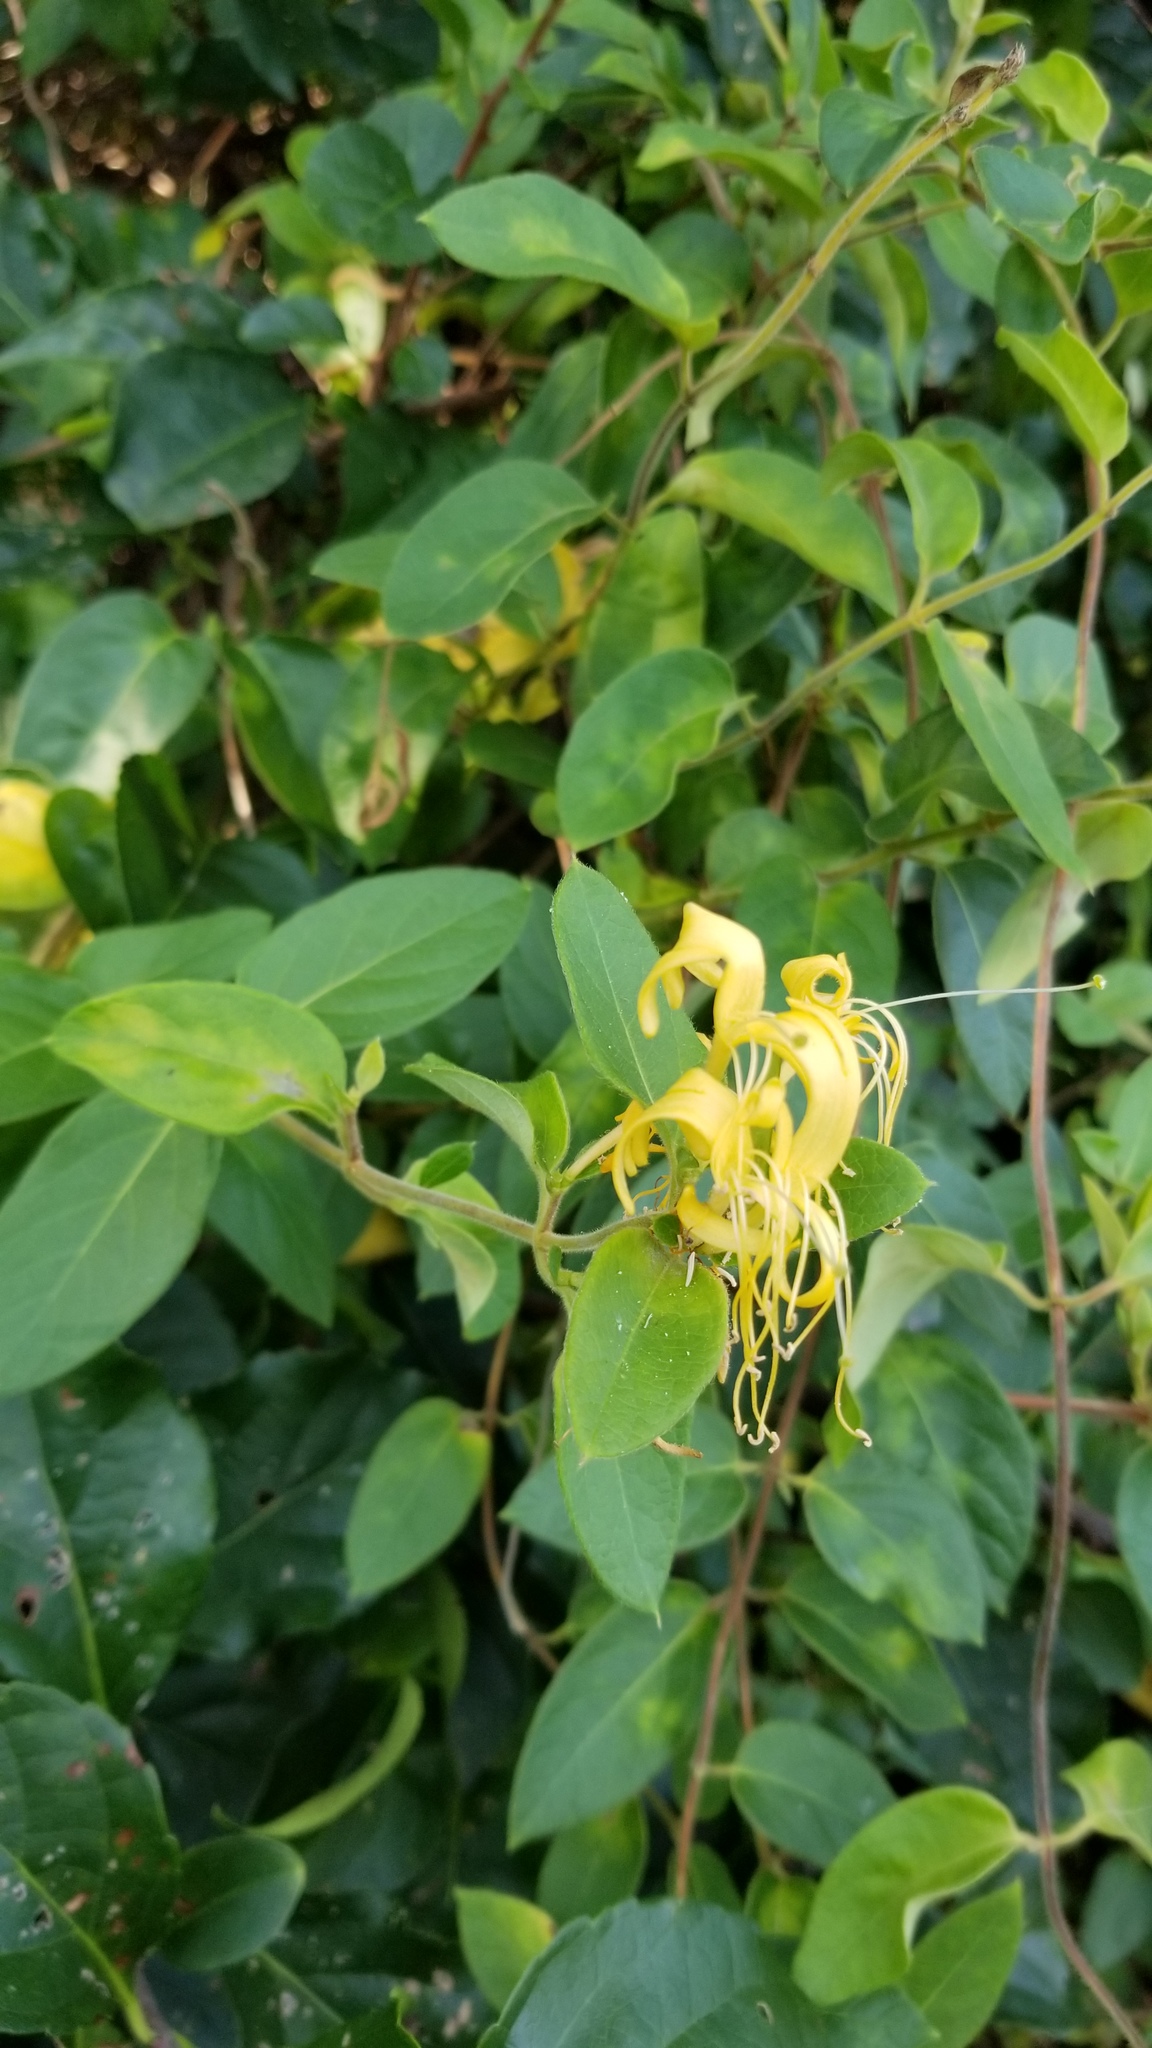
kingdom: Plantae
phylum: Tracheophyta
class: Magnoliopsida
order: Dipsacales
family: Caprifoliaceae
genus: Lonicera
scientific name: Lonicera japonica
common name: Japanese honeysuckle
